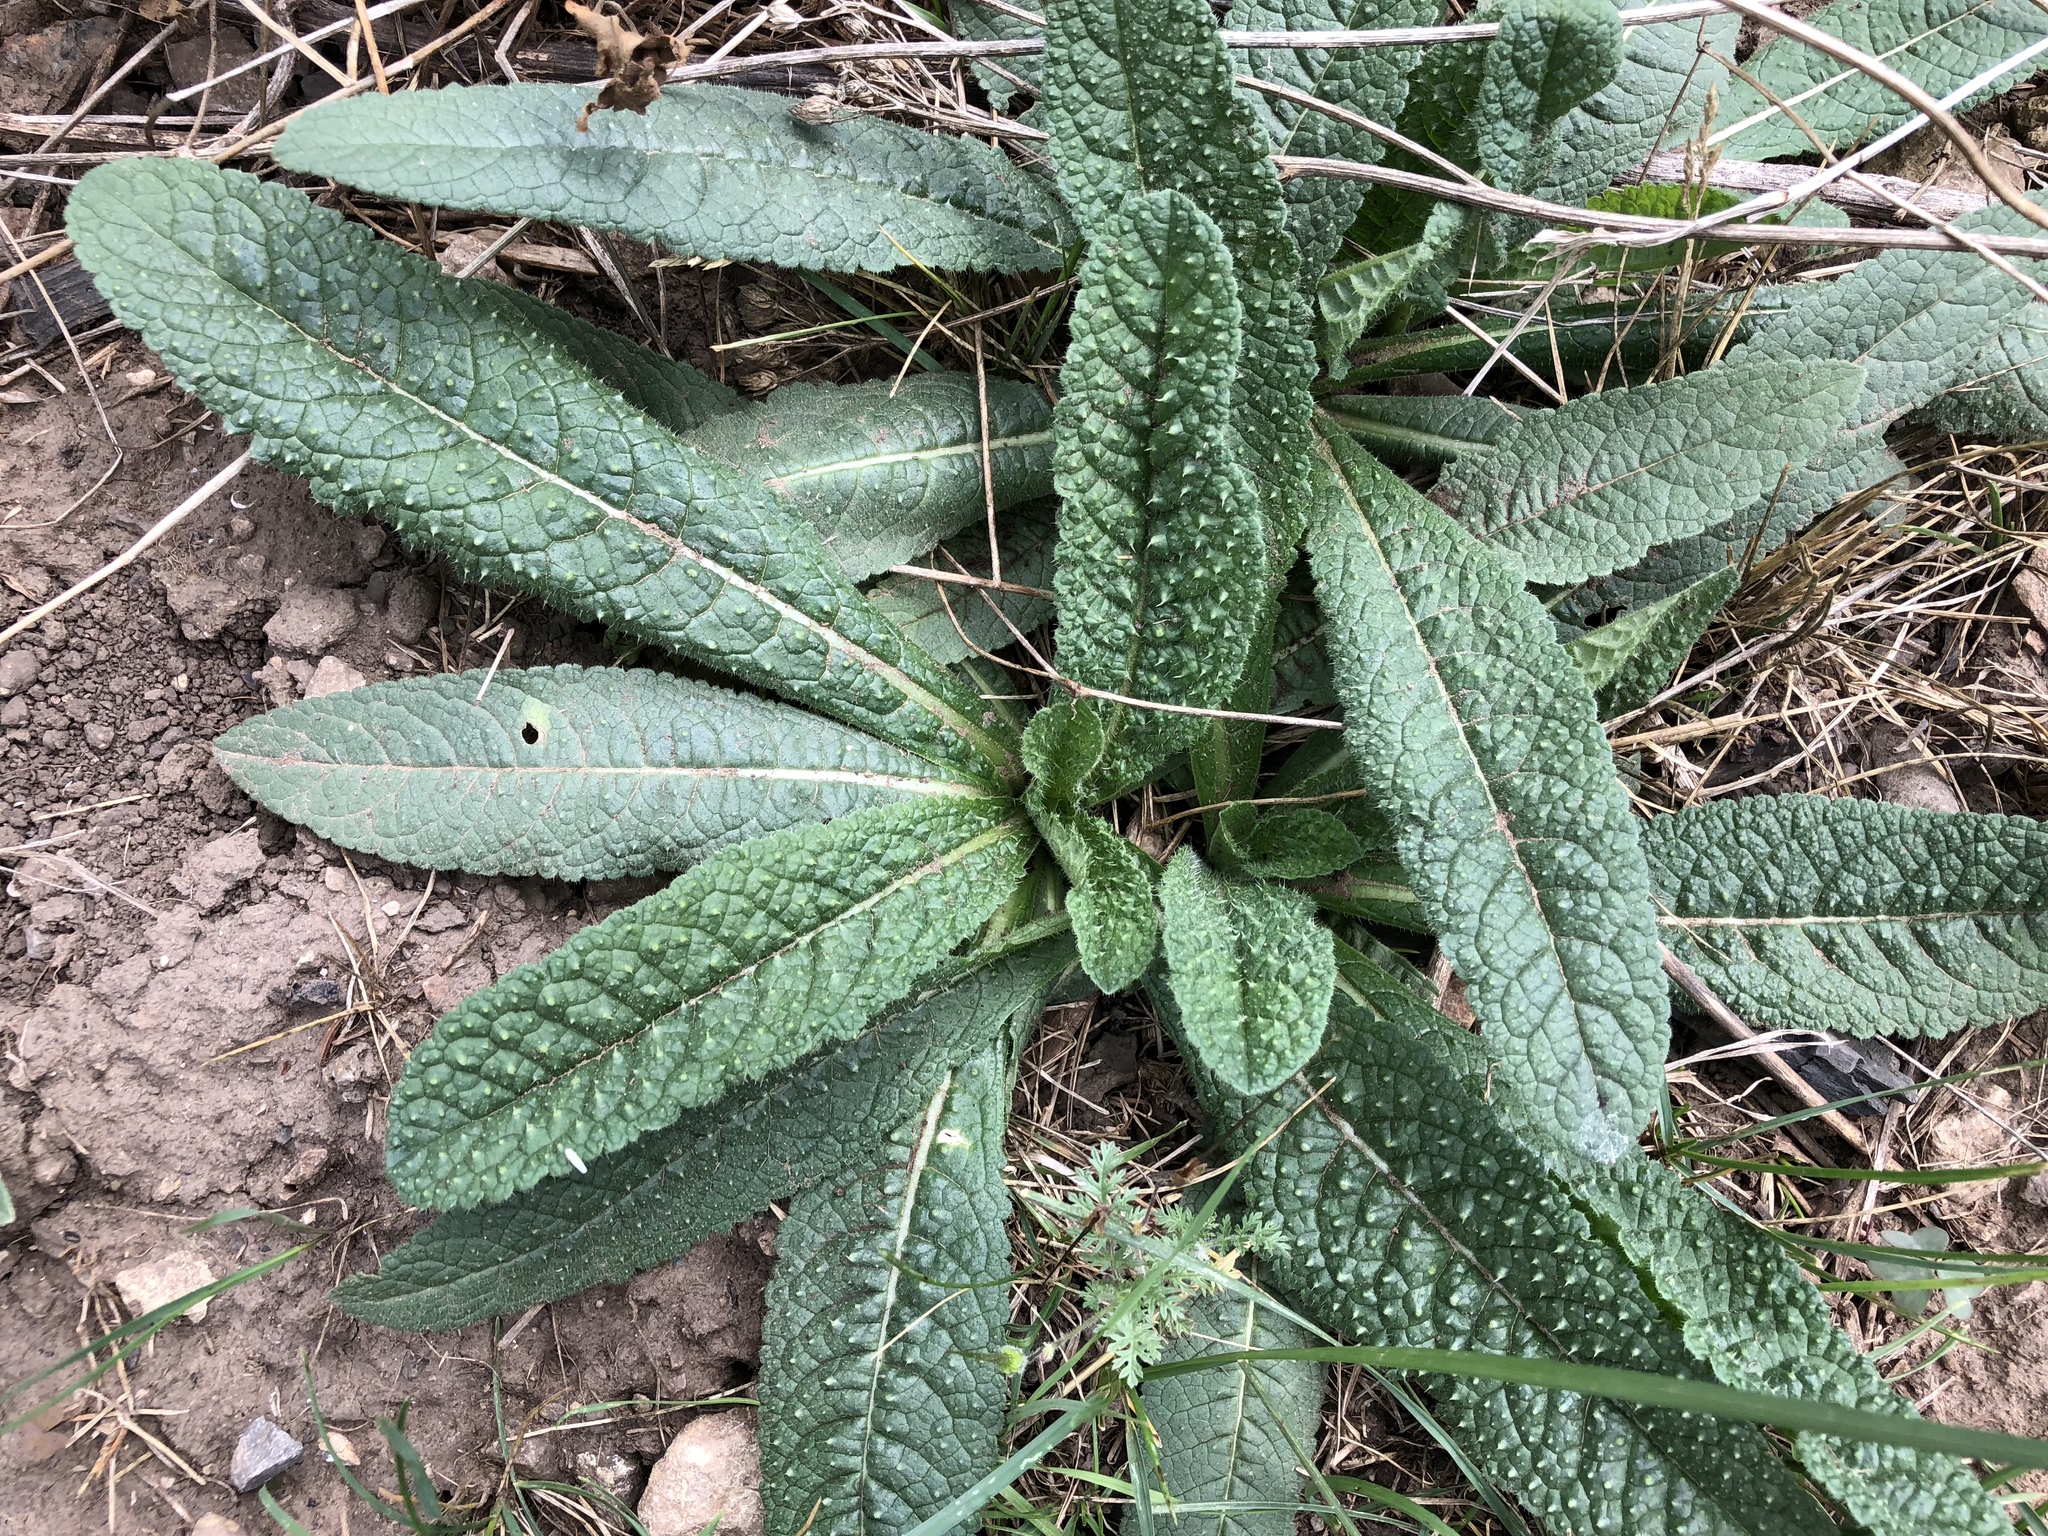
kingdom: Plantae
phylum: Tracheophyta
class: Magnoliopsida
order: Dipsacales
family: Caprifoliaceae
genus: Dipsacus
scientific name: Dipsacus fullonum
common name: Teasel
